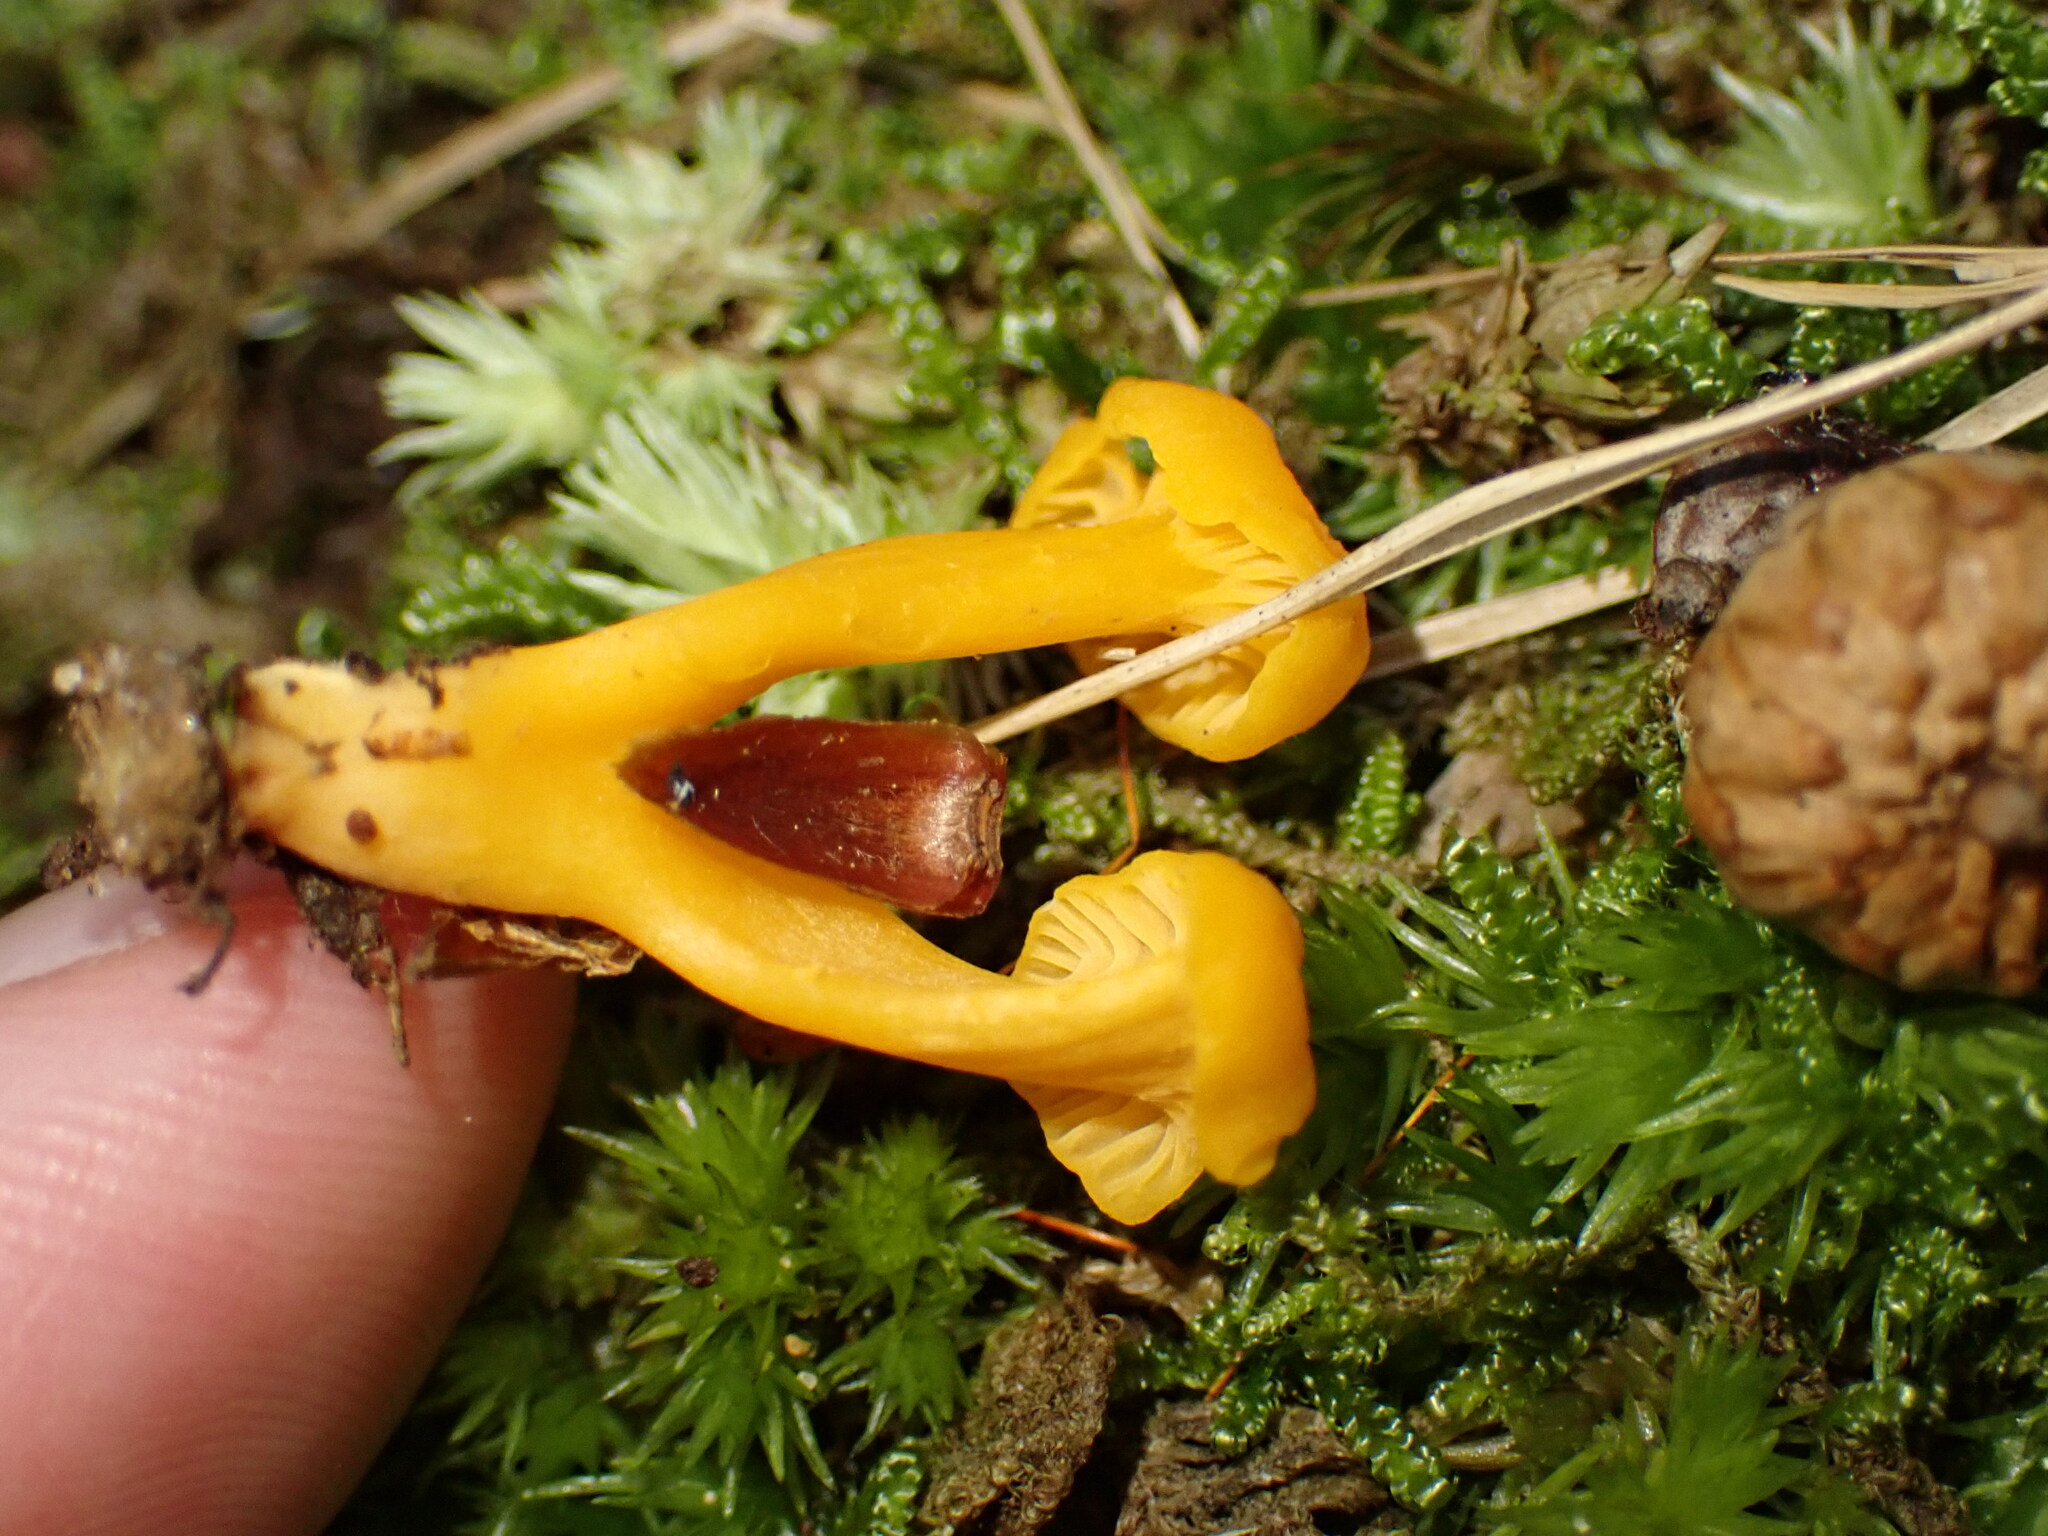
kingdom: Fungi
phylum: Basidiomycota
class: Agaricomycetes
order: Cantharellales
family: Hydnaceae
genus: Cantharellus
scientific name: Cantharellus minor
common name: Small chanterelle
